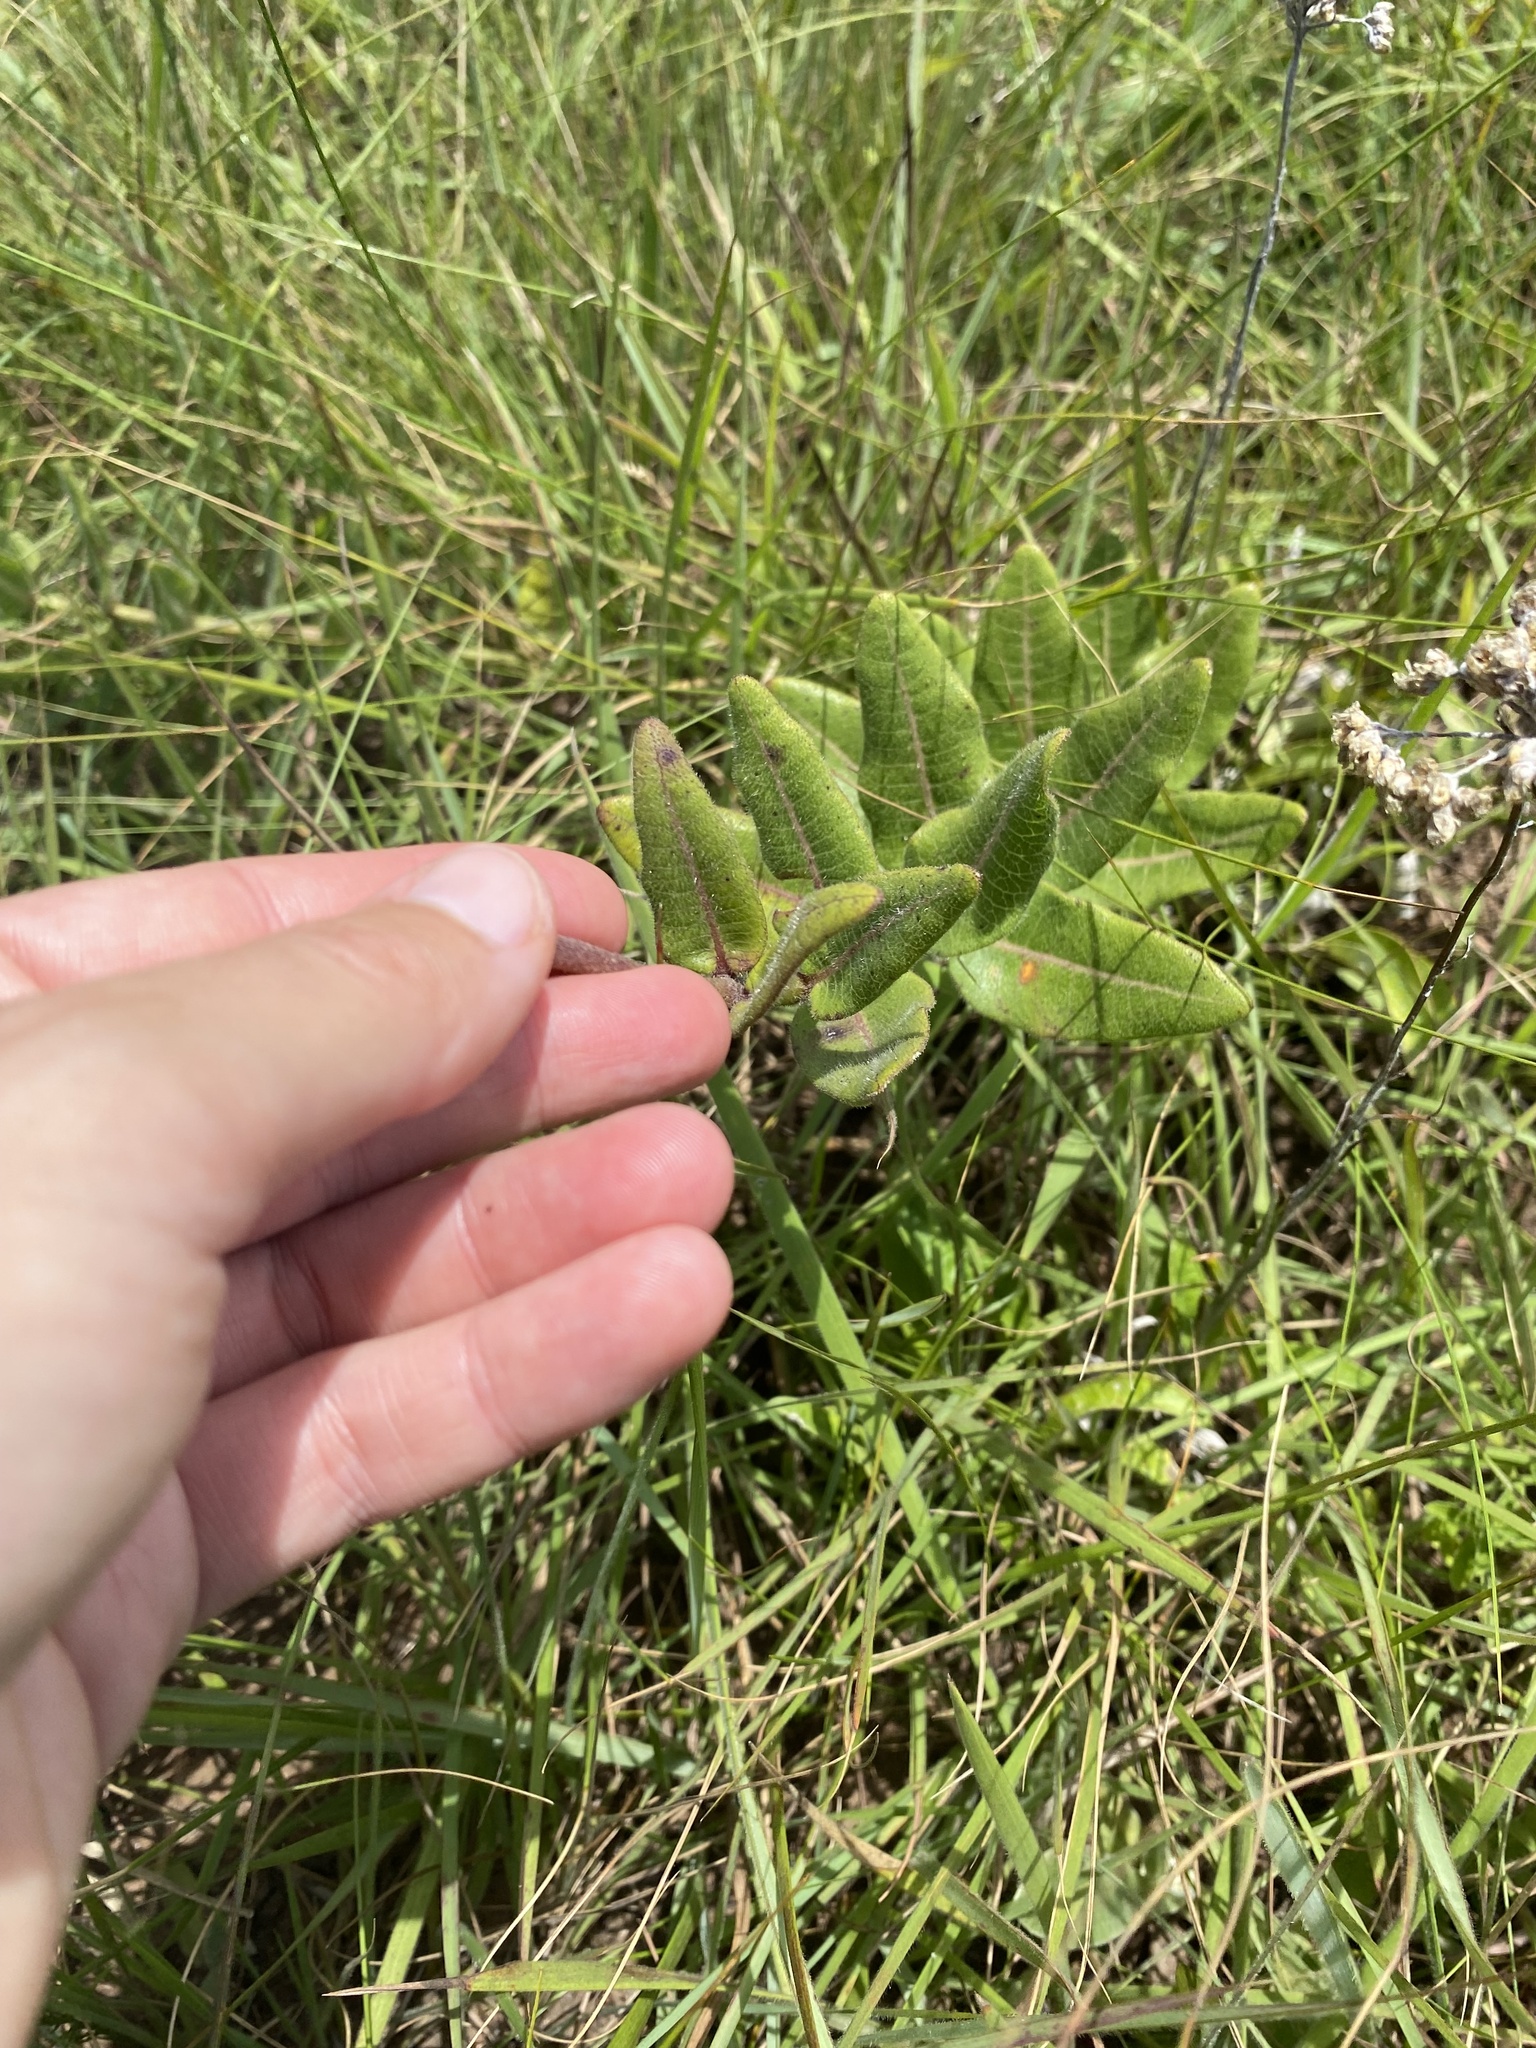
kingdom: Plantae
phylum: Tracheophyta
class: Magnoliopsida
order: Gentianales
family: Apocynaceae
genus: Asclepias
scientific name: Asclepias albens
